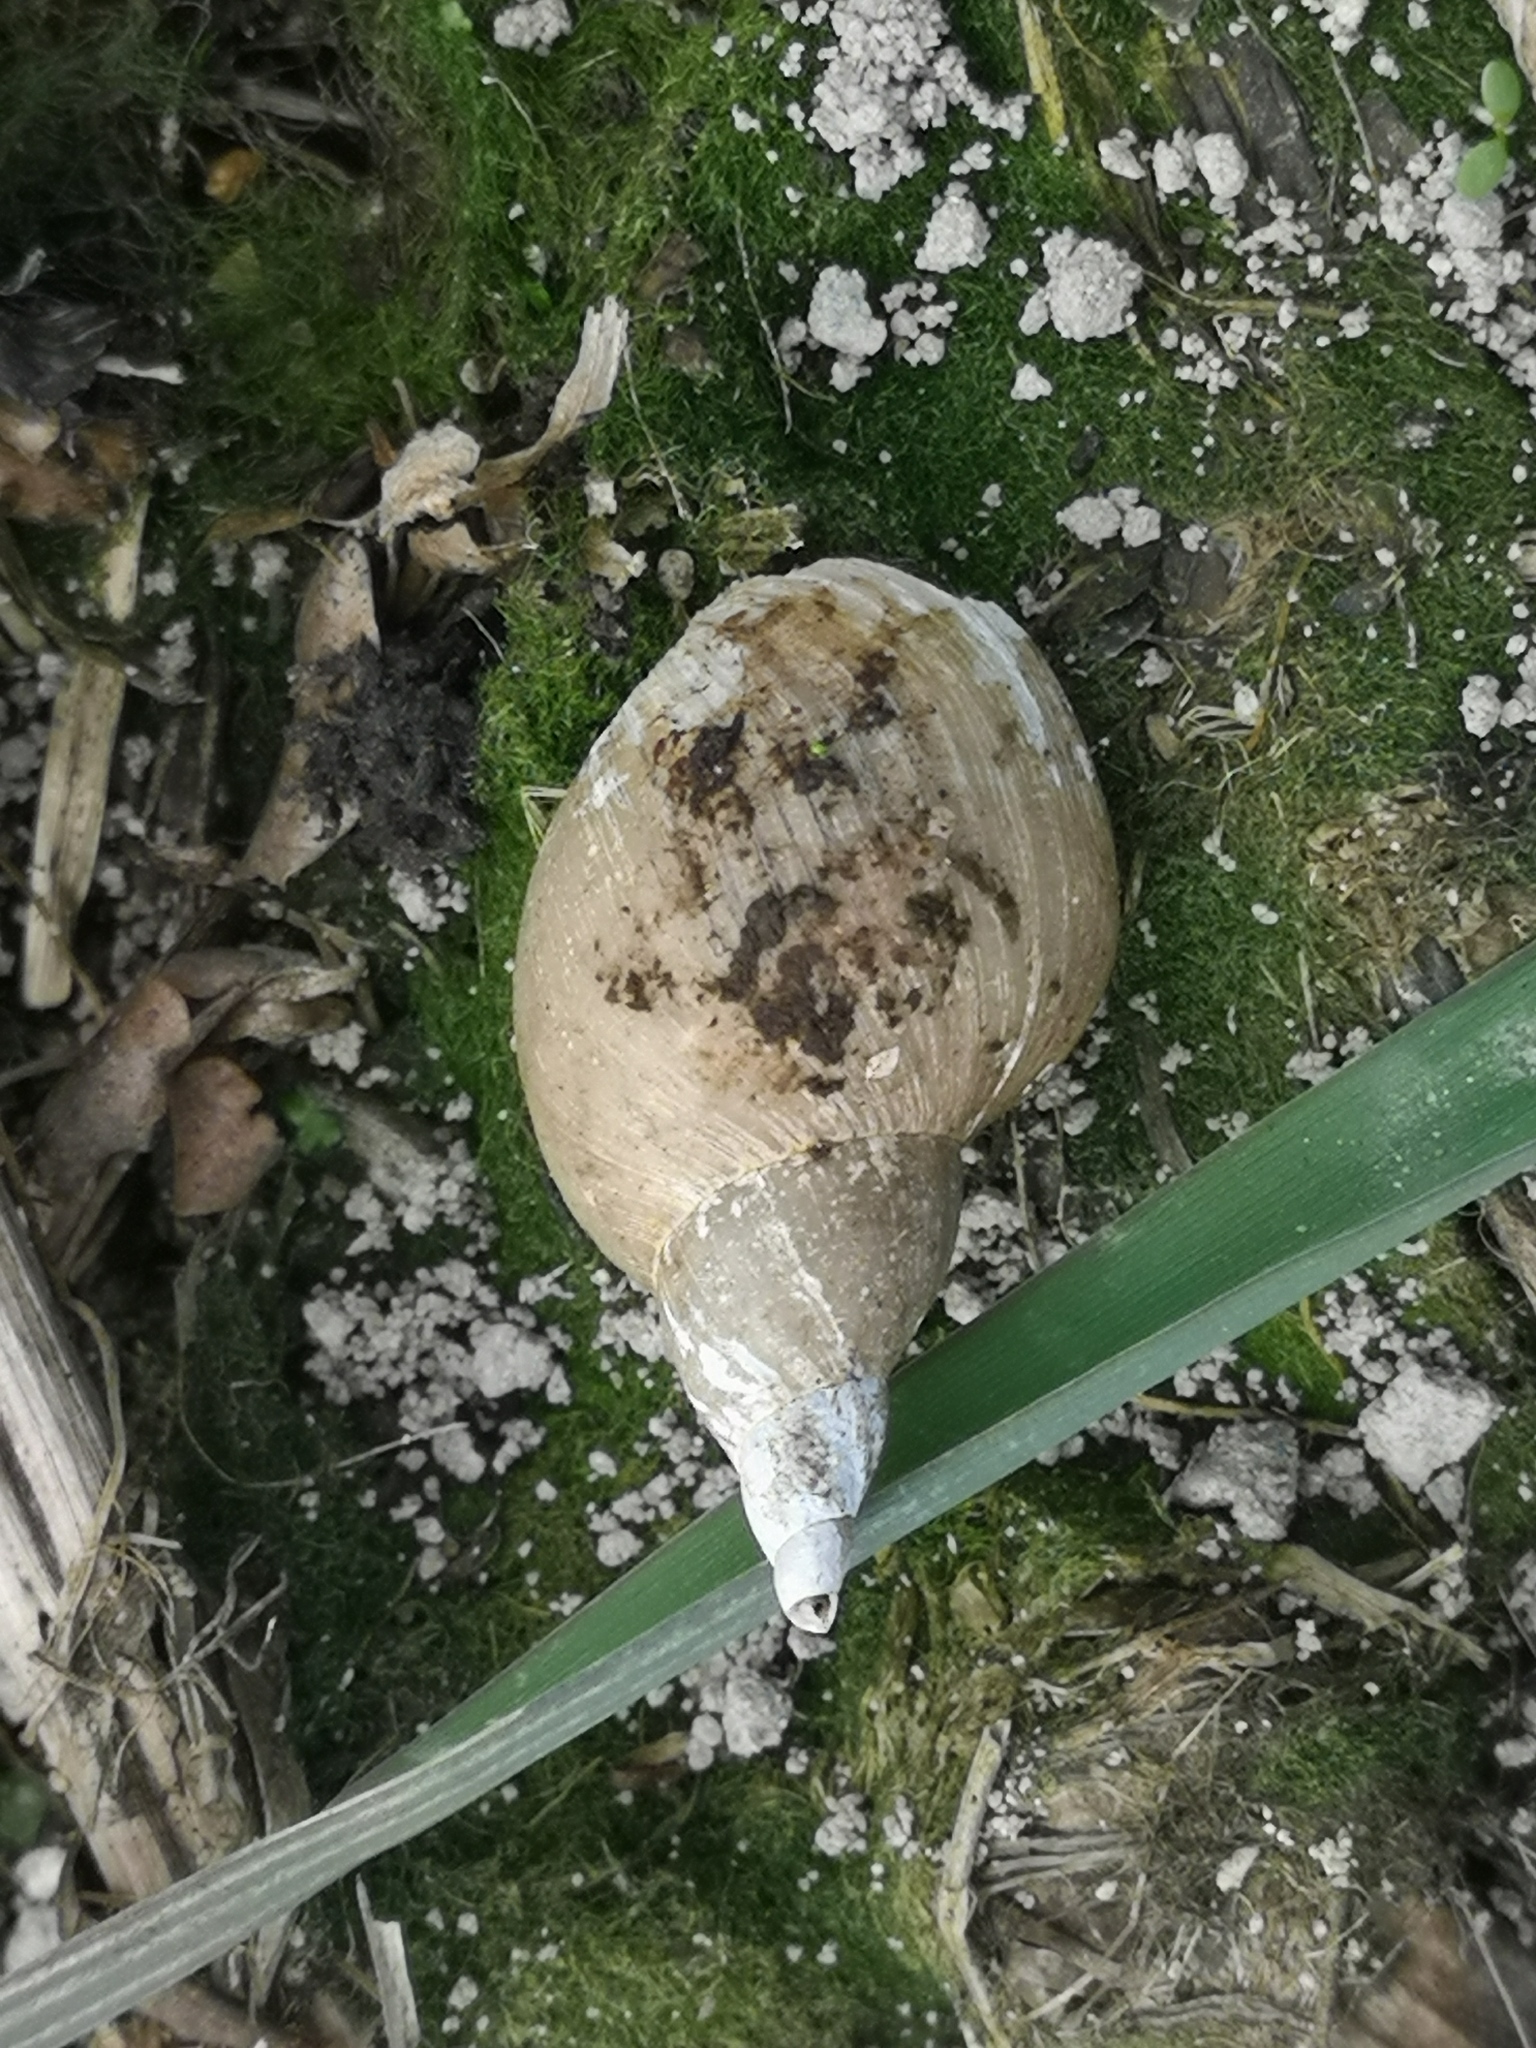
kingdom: Animalia
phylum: Mollusca
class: Gastropoda
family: Lymnaeidae
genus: Lymnaea
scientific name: Lymnaea stagnalis
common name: Great pond snail
